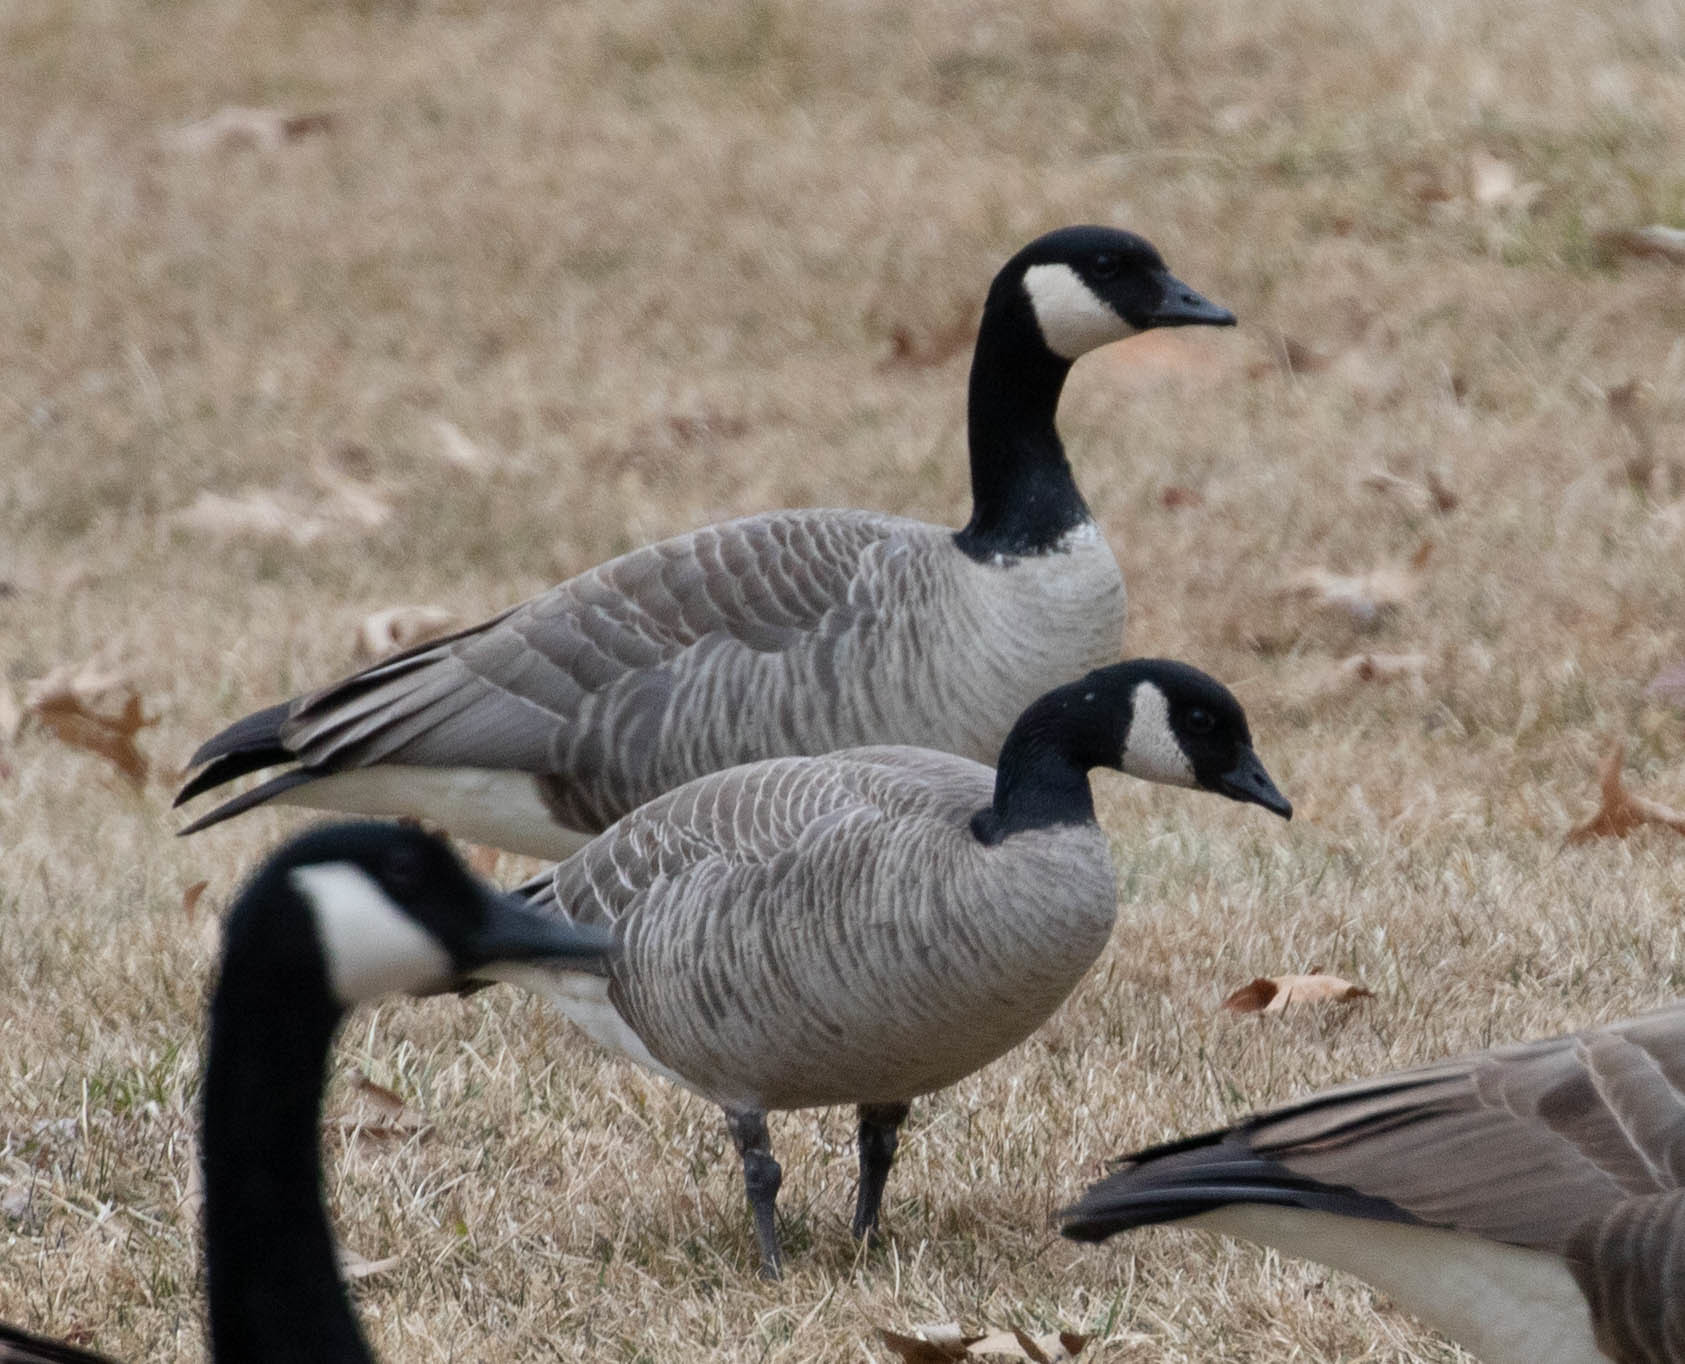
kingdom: Animalia
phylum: Chordata
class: Aves
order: Anseriformes
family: Anatidae
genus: Branta
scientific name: Branta hutchinsii
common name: Cackling goose
